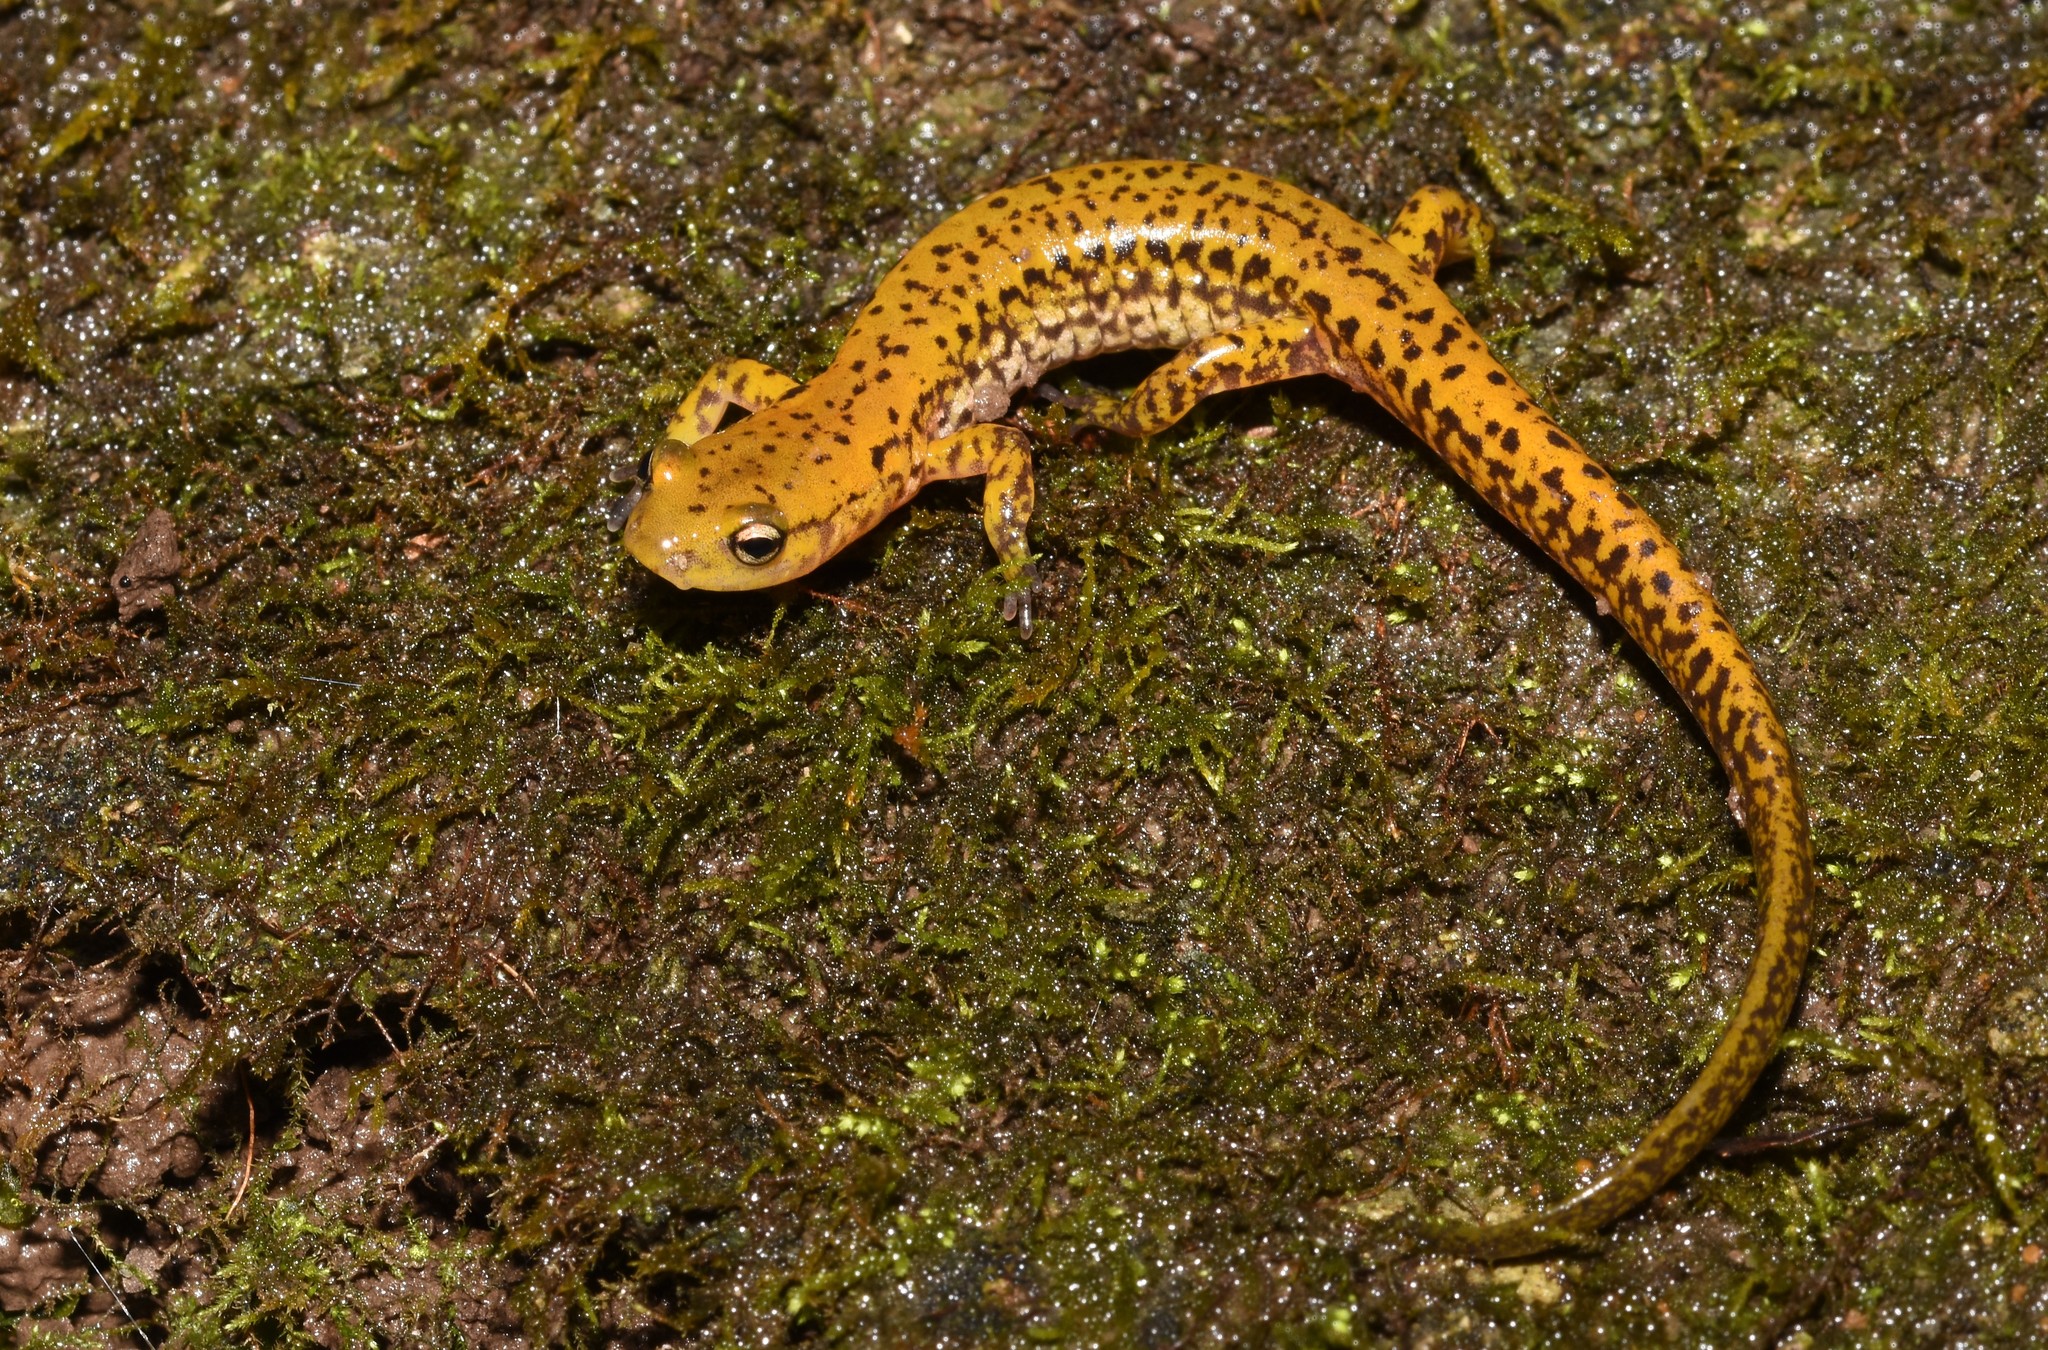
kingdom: Animalia
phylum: Chordata
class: Amphibia
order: Caudata
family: Plethodontidae
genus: Eurycea
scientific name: Eurycea longicauda
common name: Long-tailed salamander
